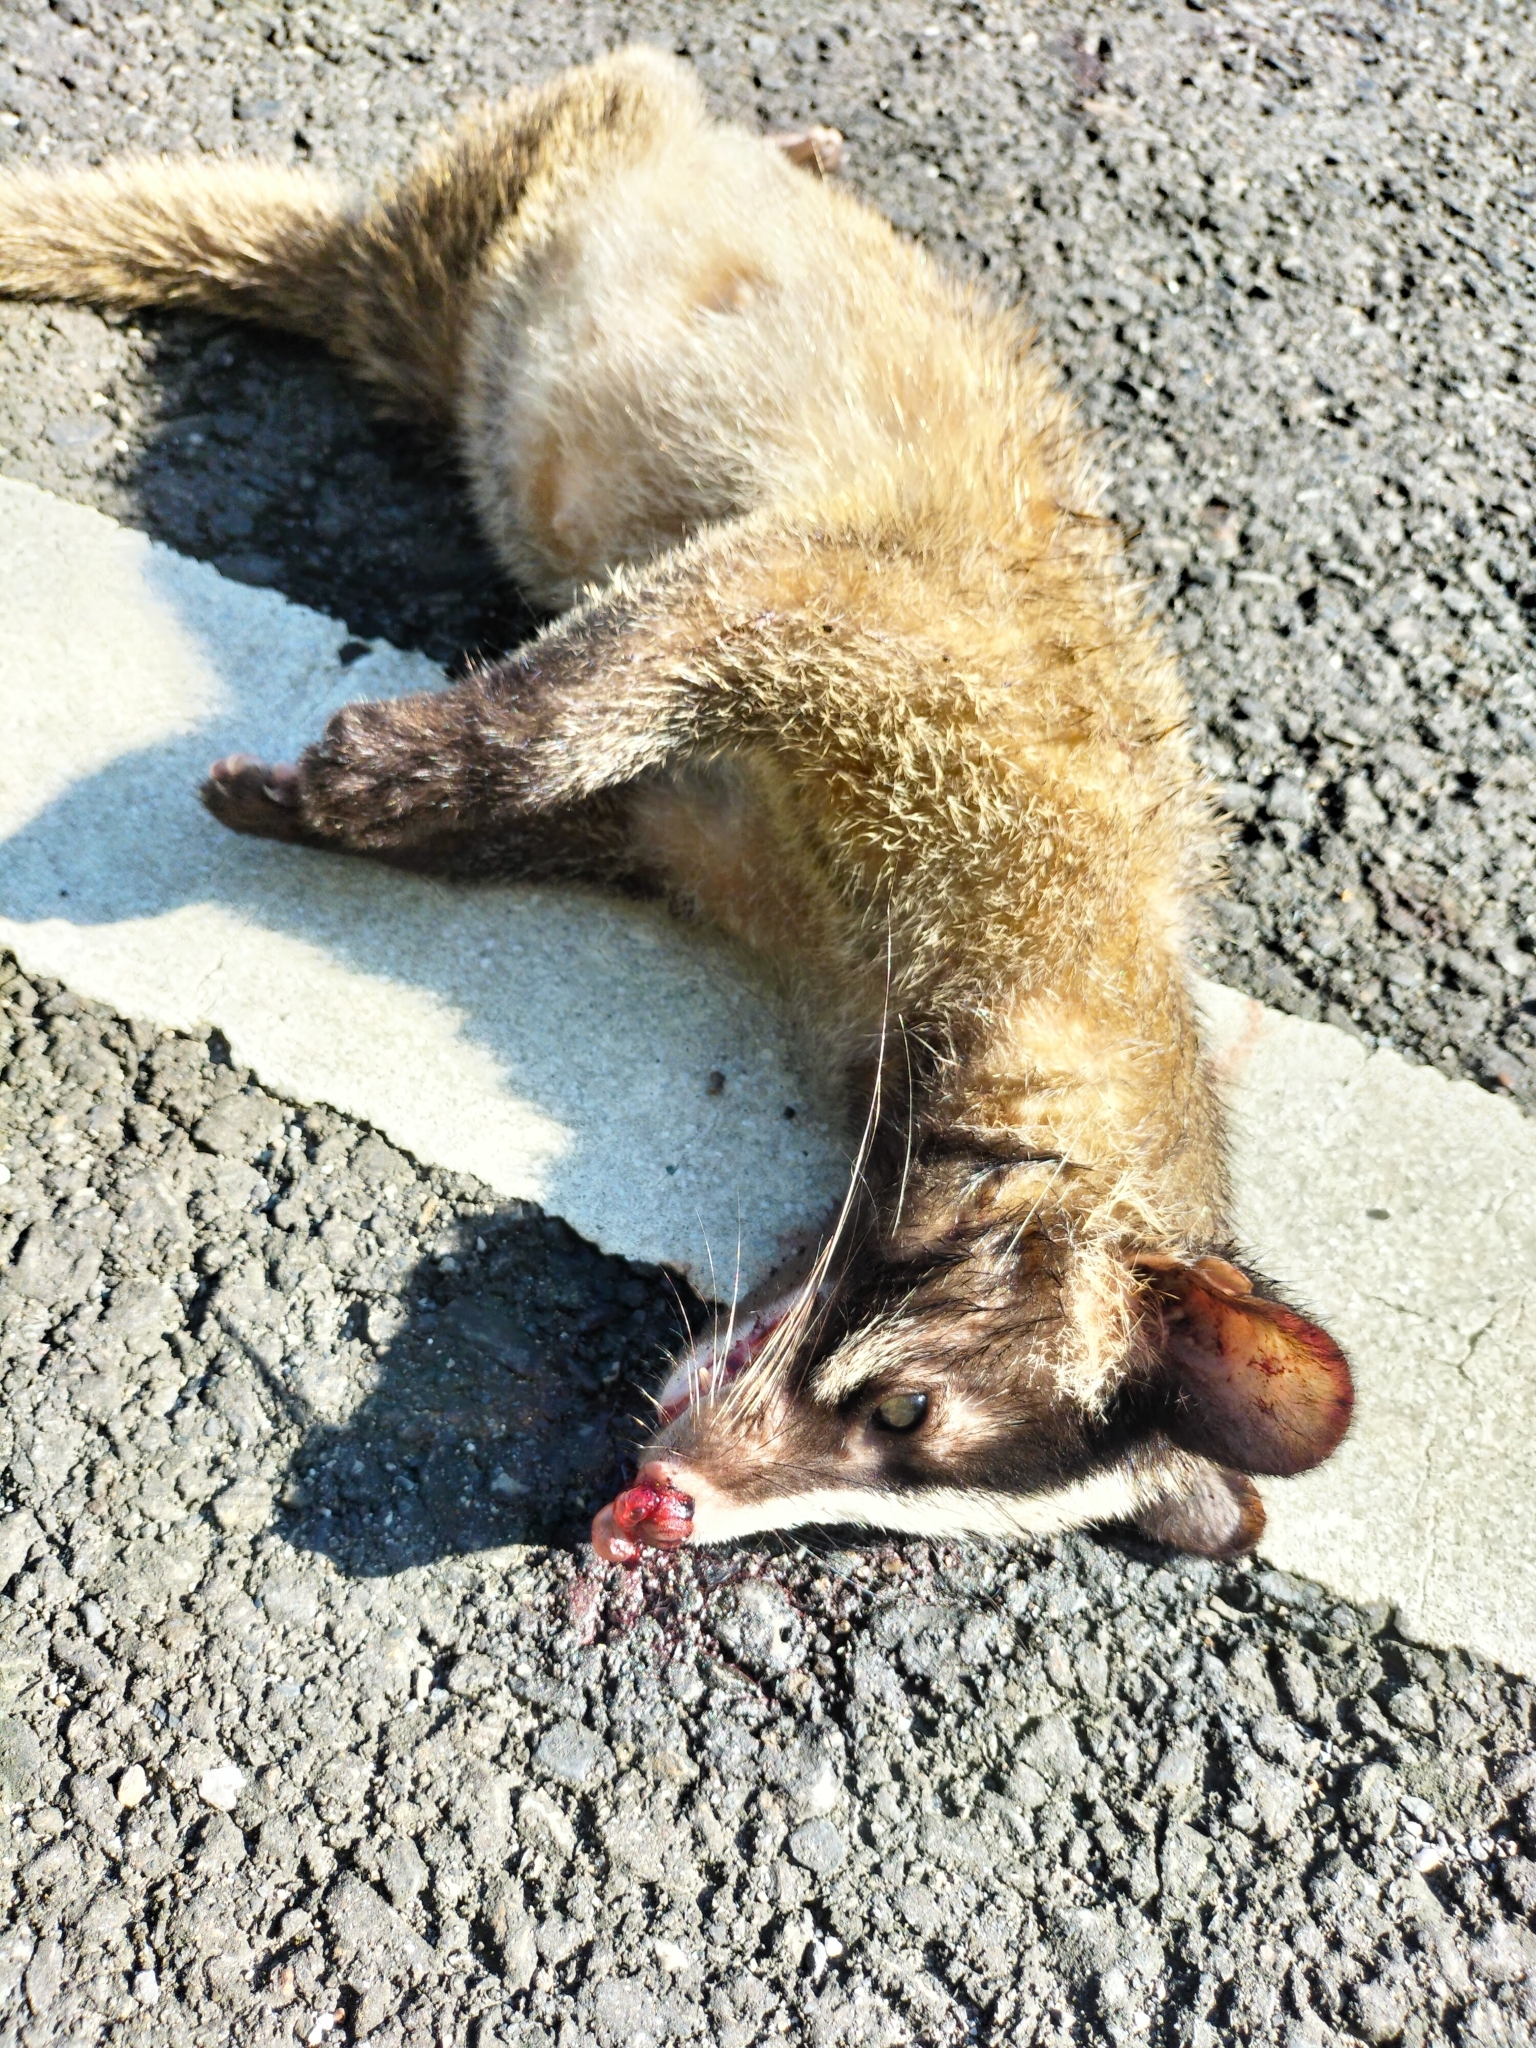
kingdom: Animalia
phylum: Chordata
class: Mammalia
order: Carnivora
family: Viverridae
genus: Paguma
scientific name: Paguma larvata
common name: Masked palm civet
